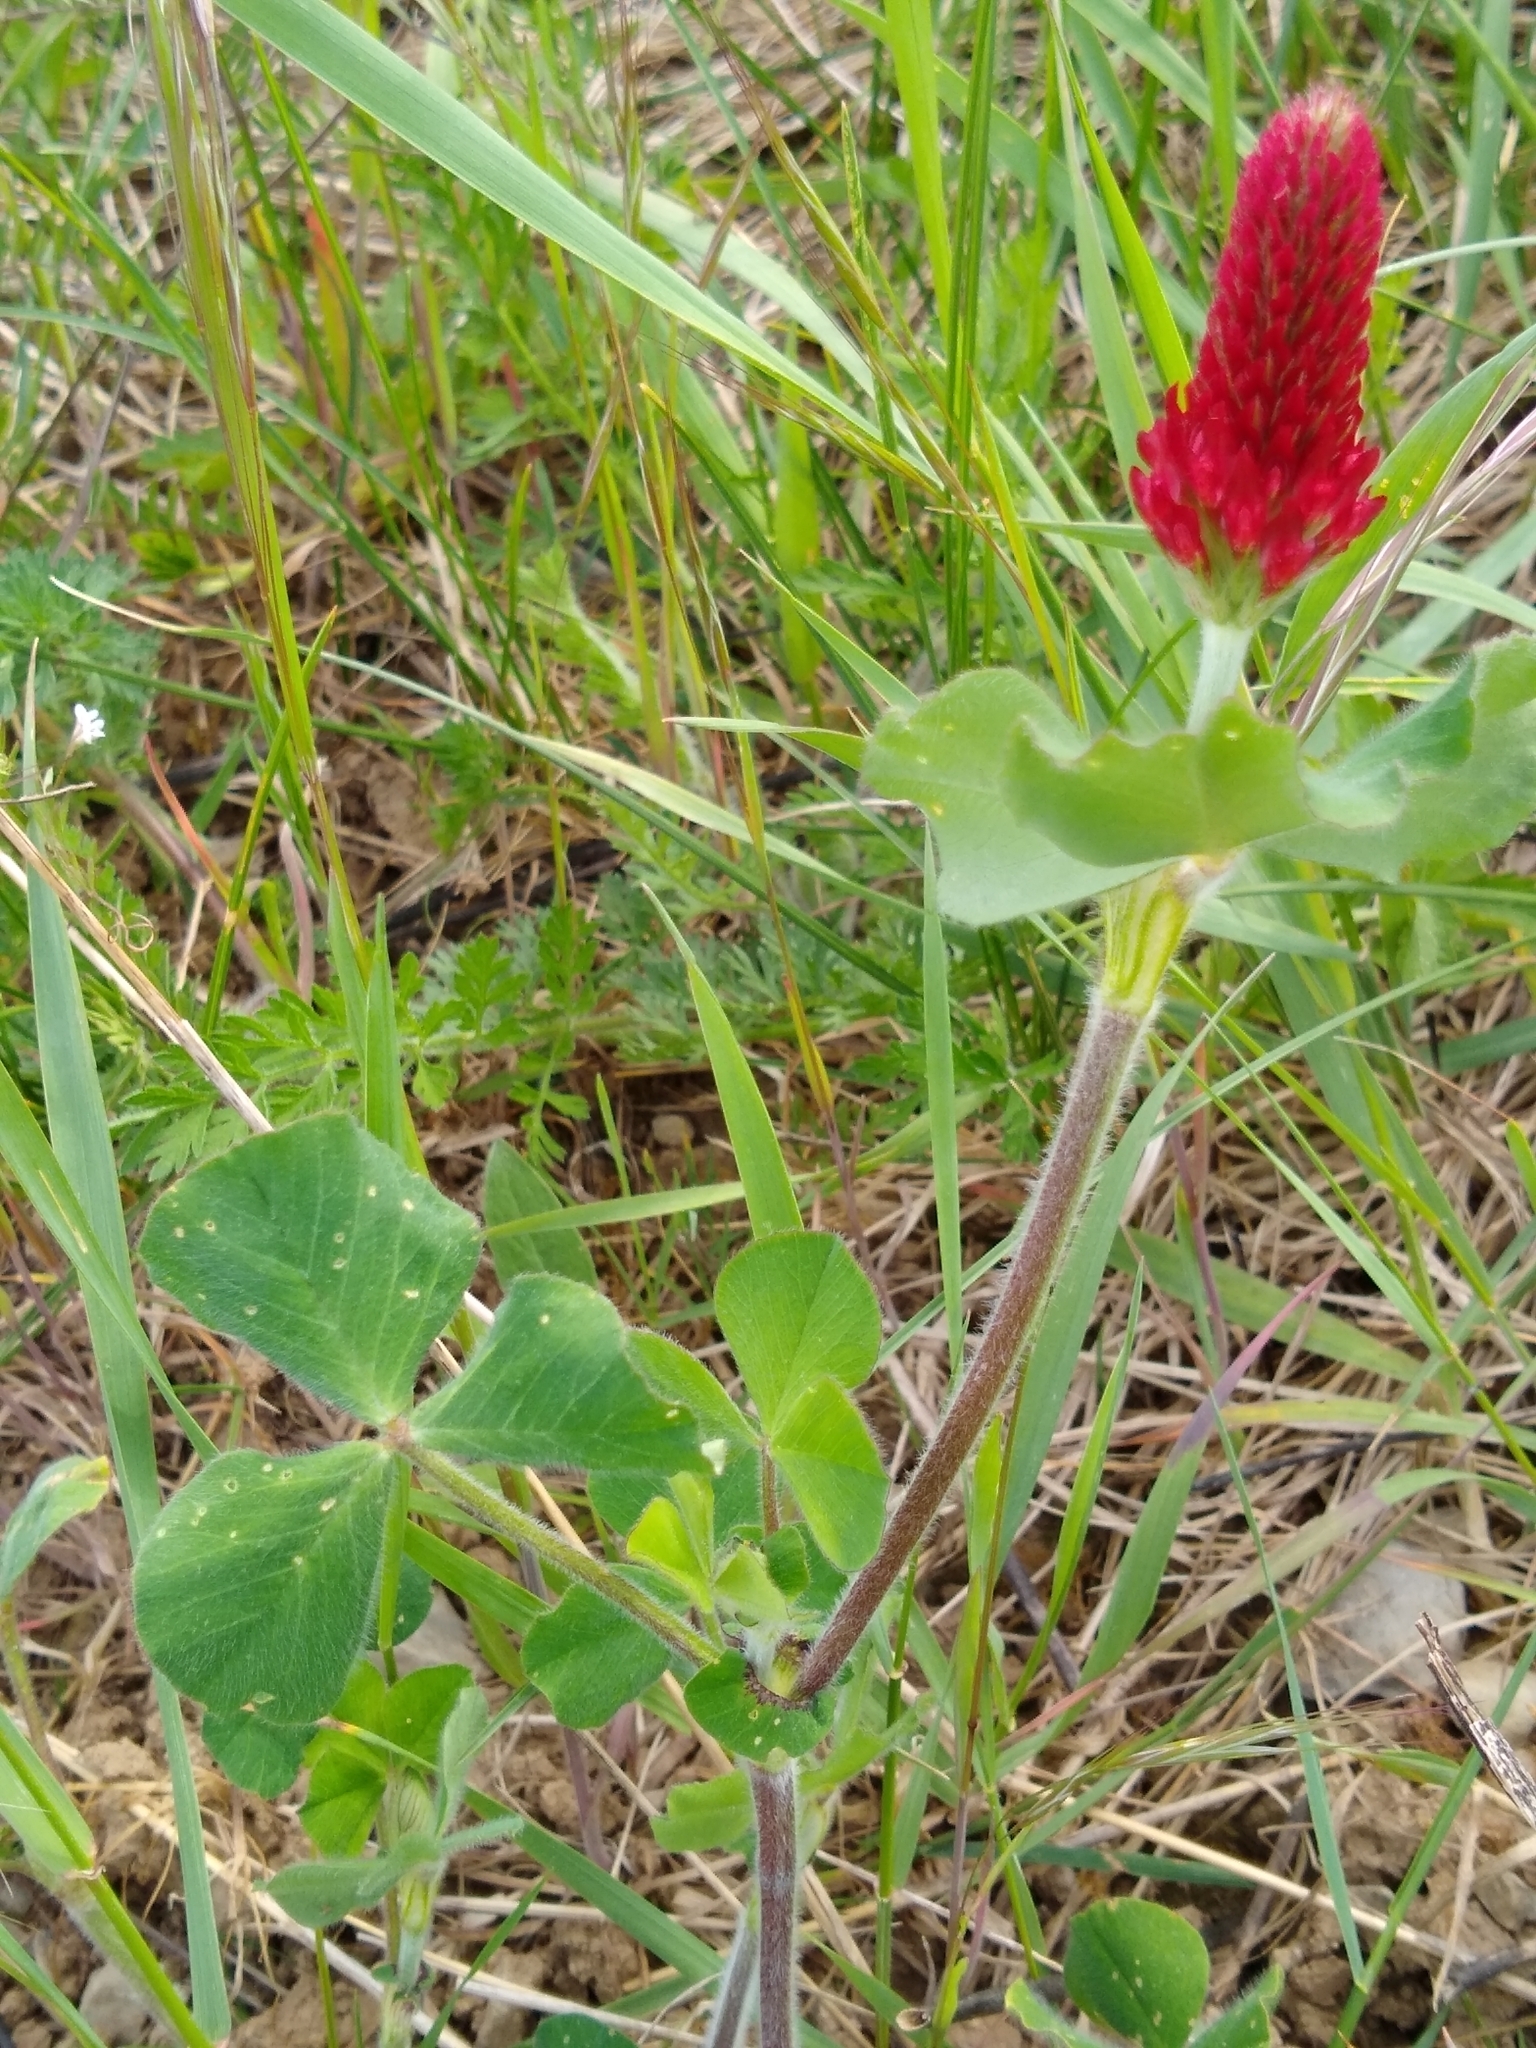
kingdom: Plantae
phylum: Tracheophyta
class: Magnoliopsida
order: Fabales
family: Fabaceae
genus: Trifolium
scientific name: Trifolium incarnatum
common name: Crimson clover
